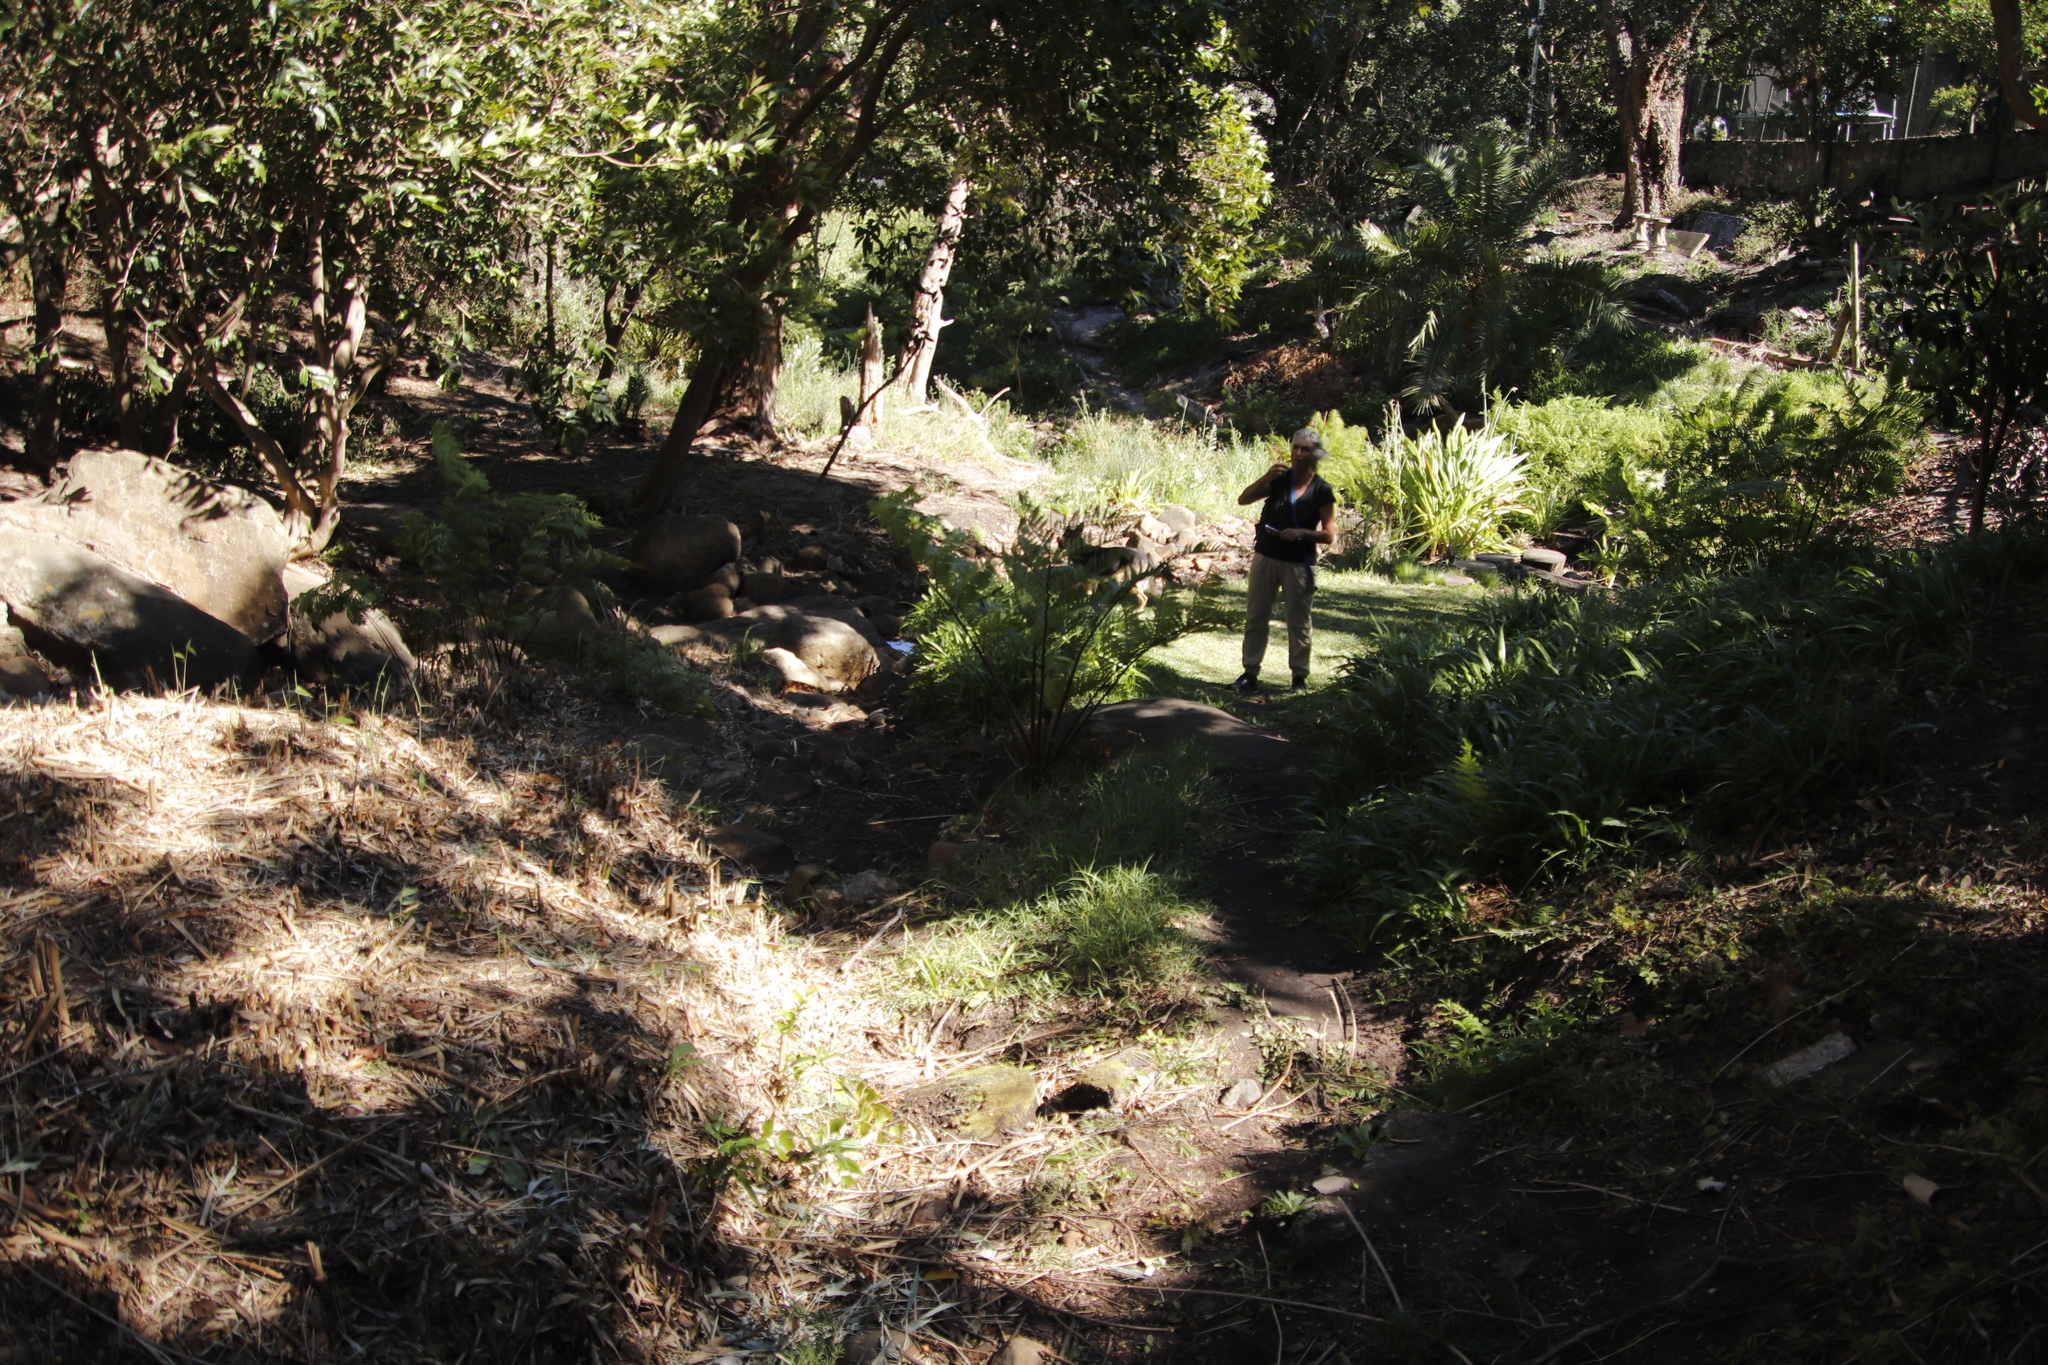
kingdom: Plantae
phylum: Tracheophyta
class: Polypodiopsida
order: Cyatheales
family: Cyatheaceae
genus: Sphaeropteris
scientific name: Sphaeropteris cooperi
